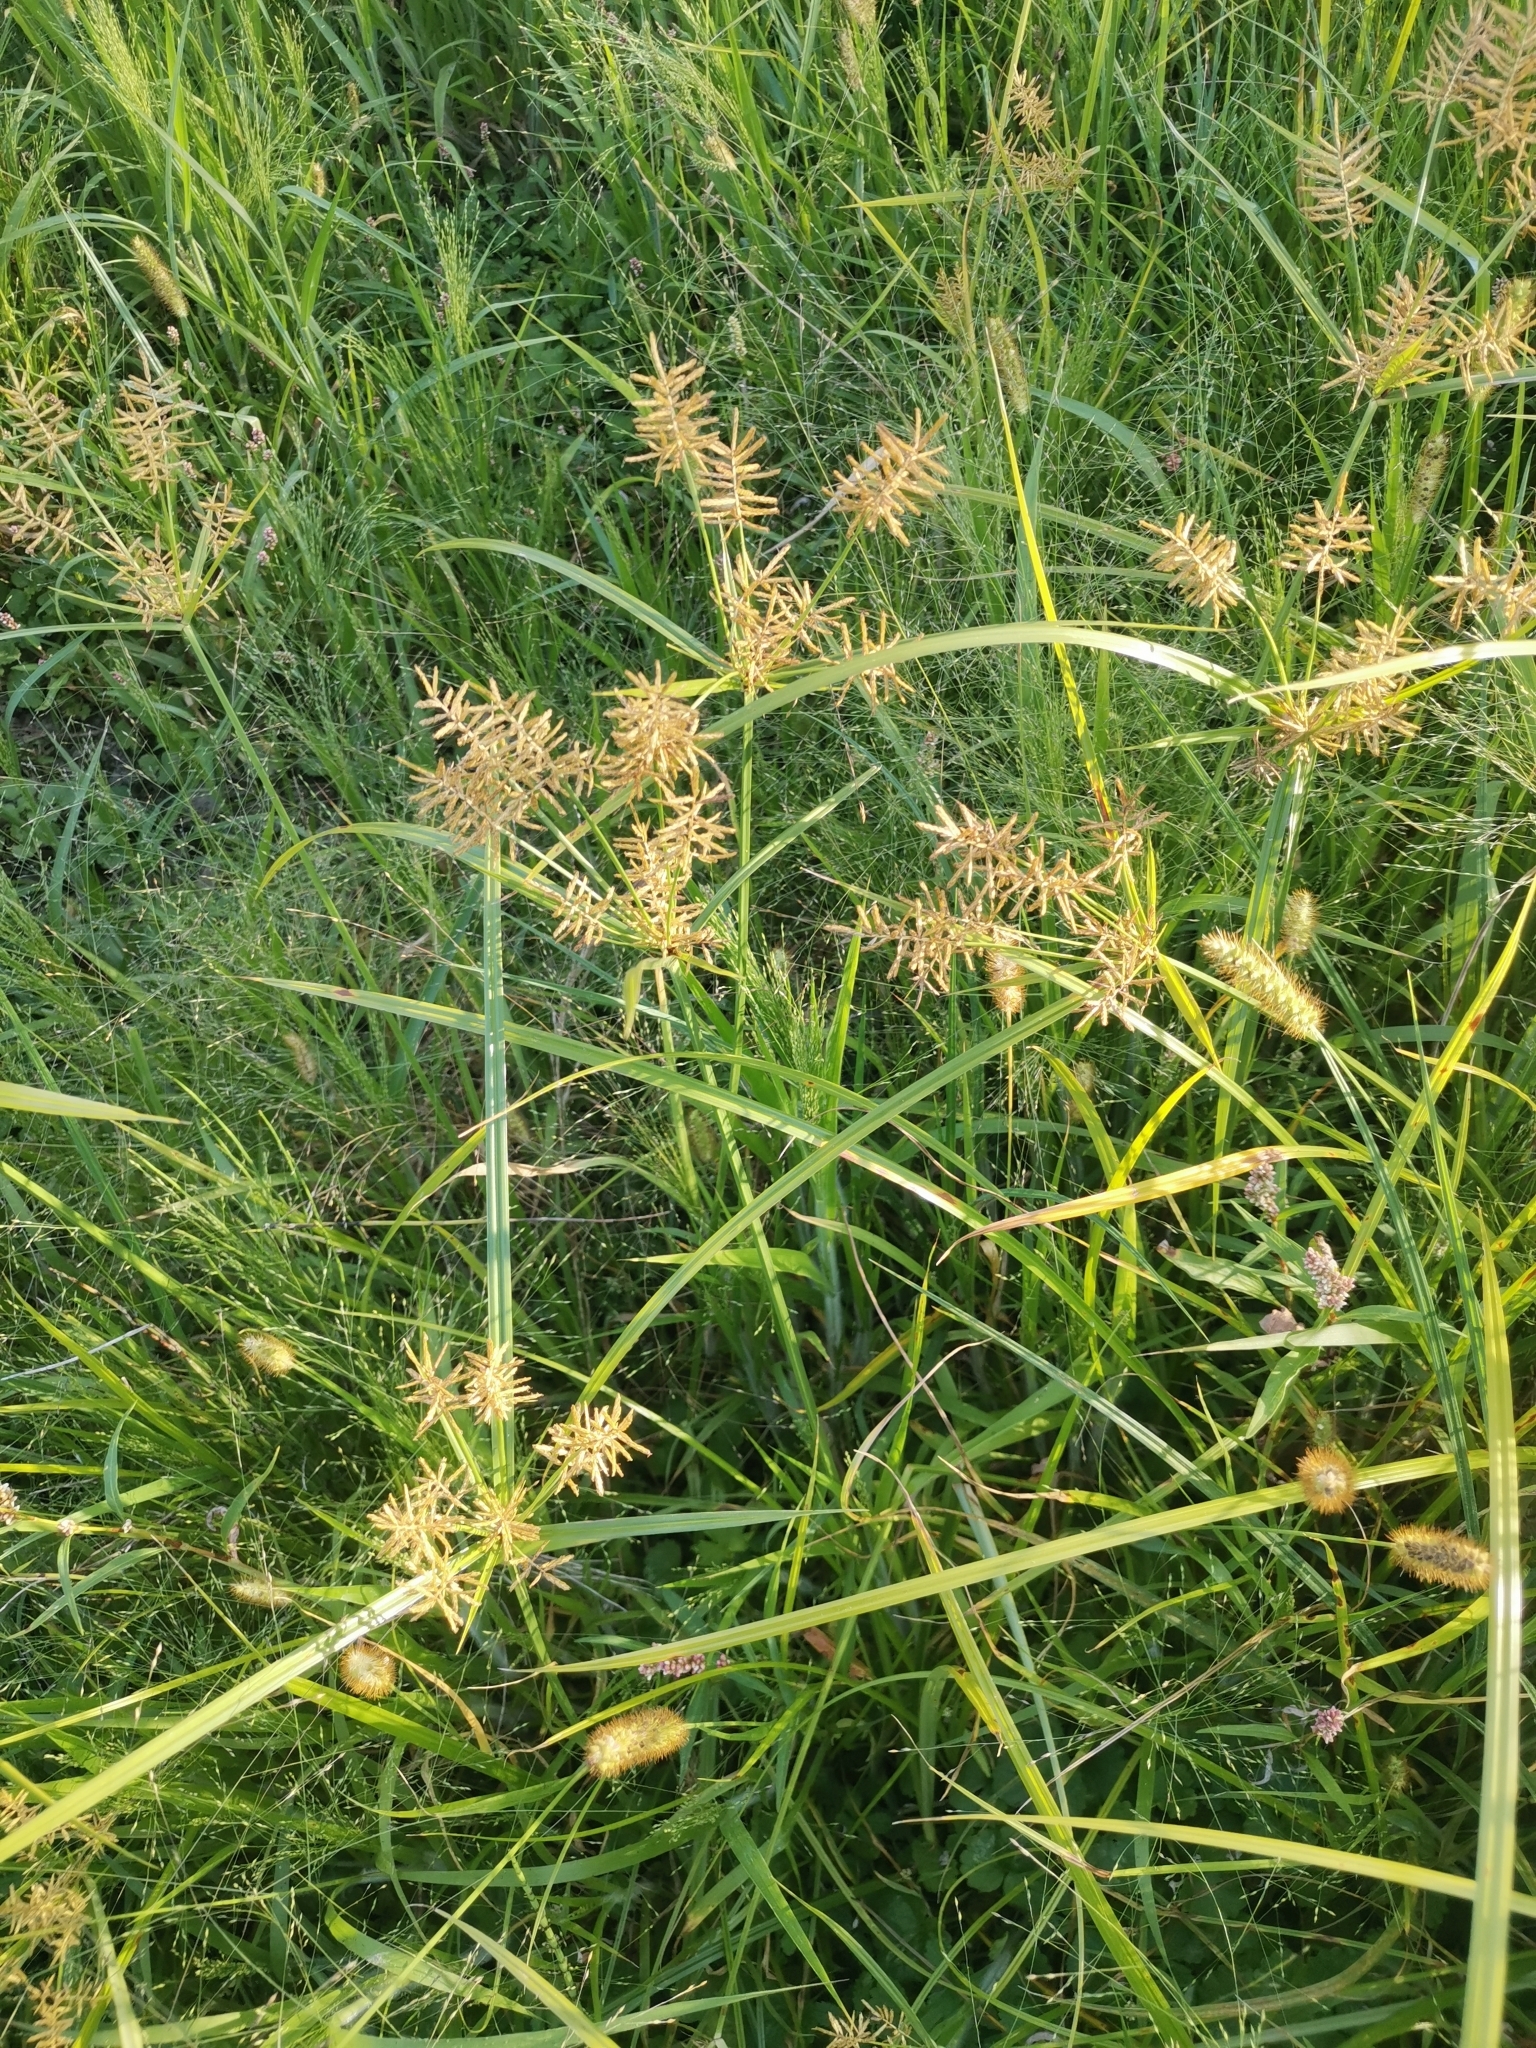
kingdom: Plantae
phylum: Tracheophyta
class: Liliopsida
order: Poales
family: Cyperaceae
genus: Cyperus
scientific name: Cyperus esculentus
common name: Yellow nutsedge
